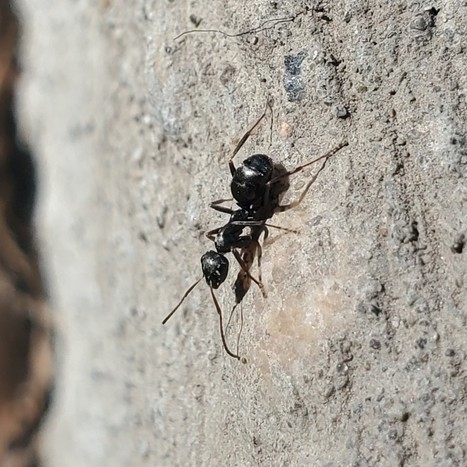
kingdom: Animalia
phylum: Arthropoda
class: Insecta
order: Hymenoptera
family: Formicidae
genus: Formica
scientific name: Formica
